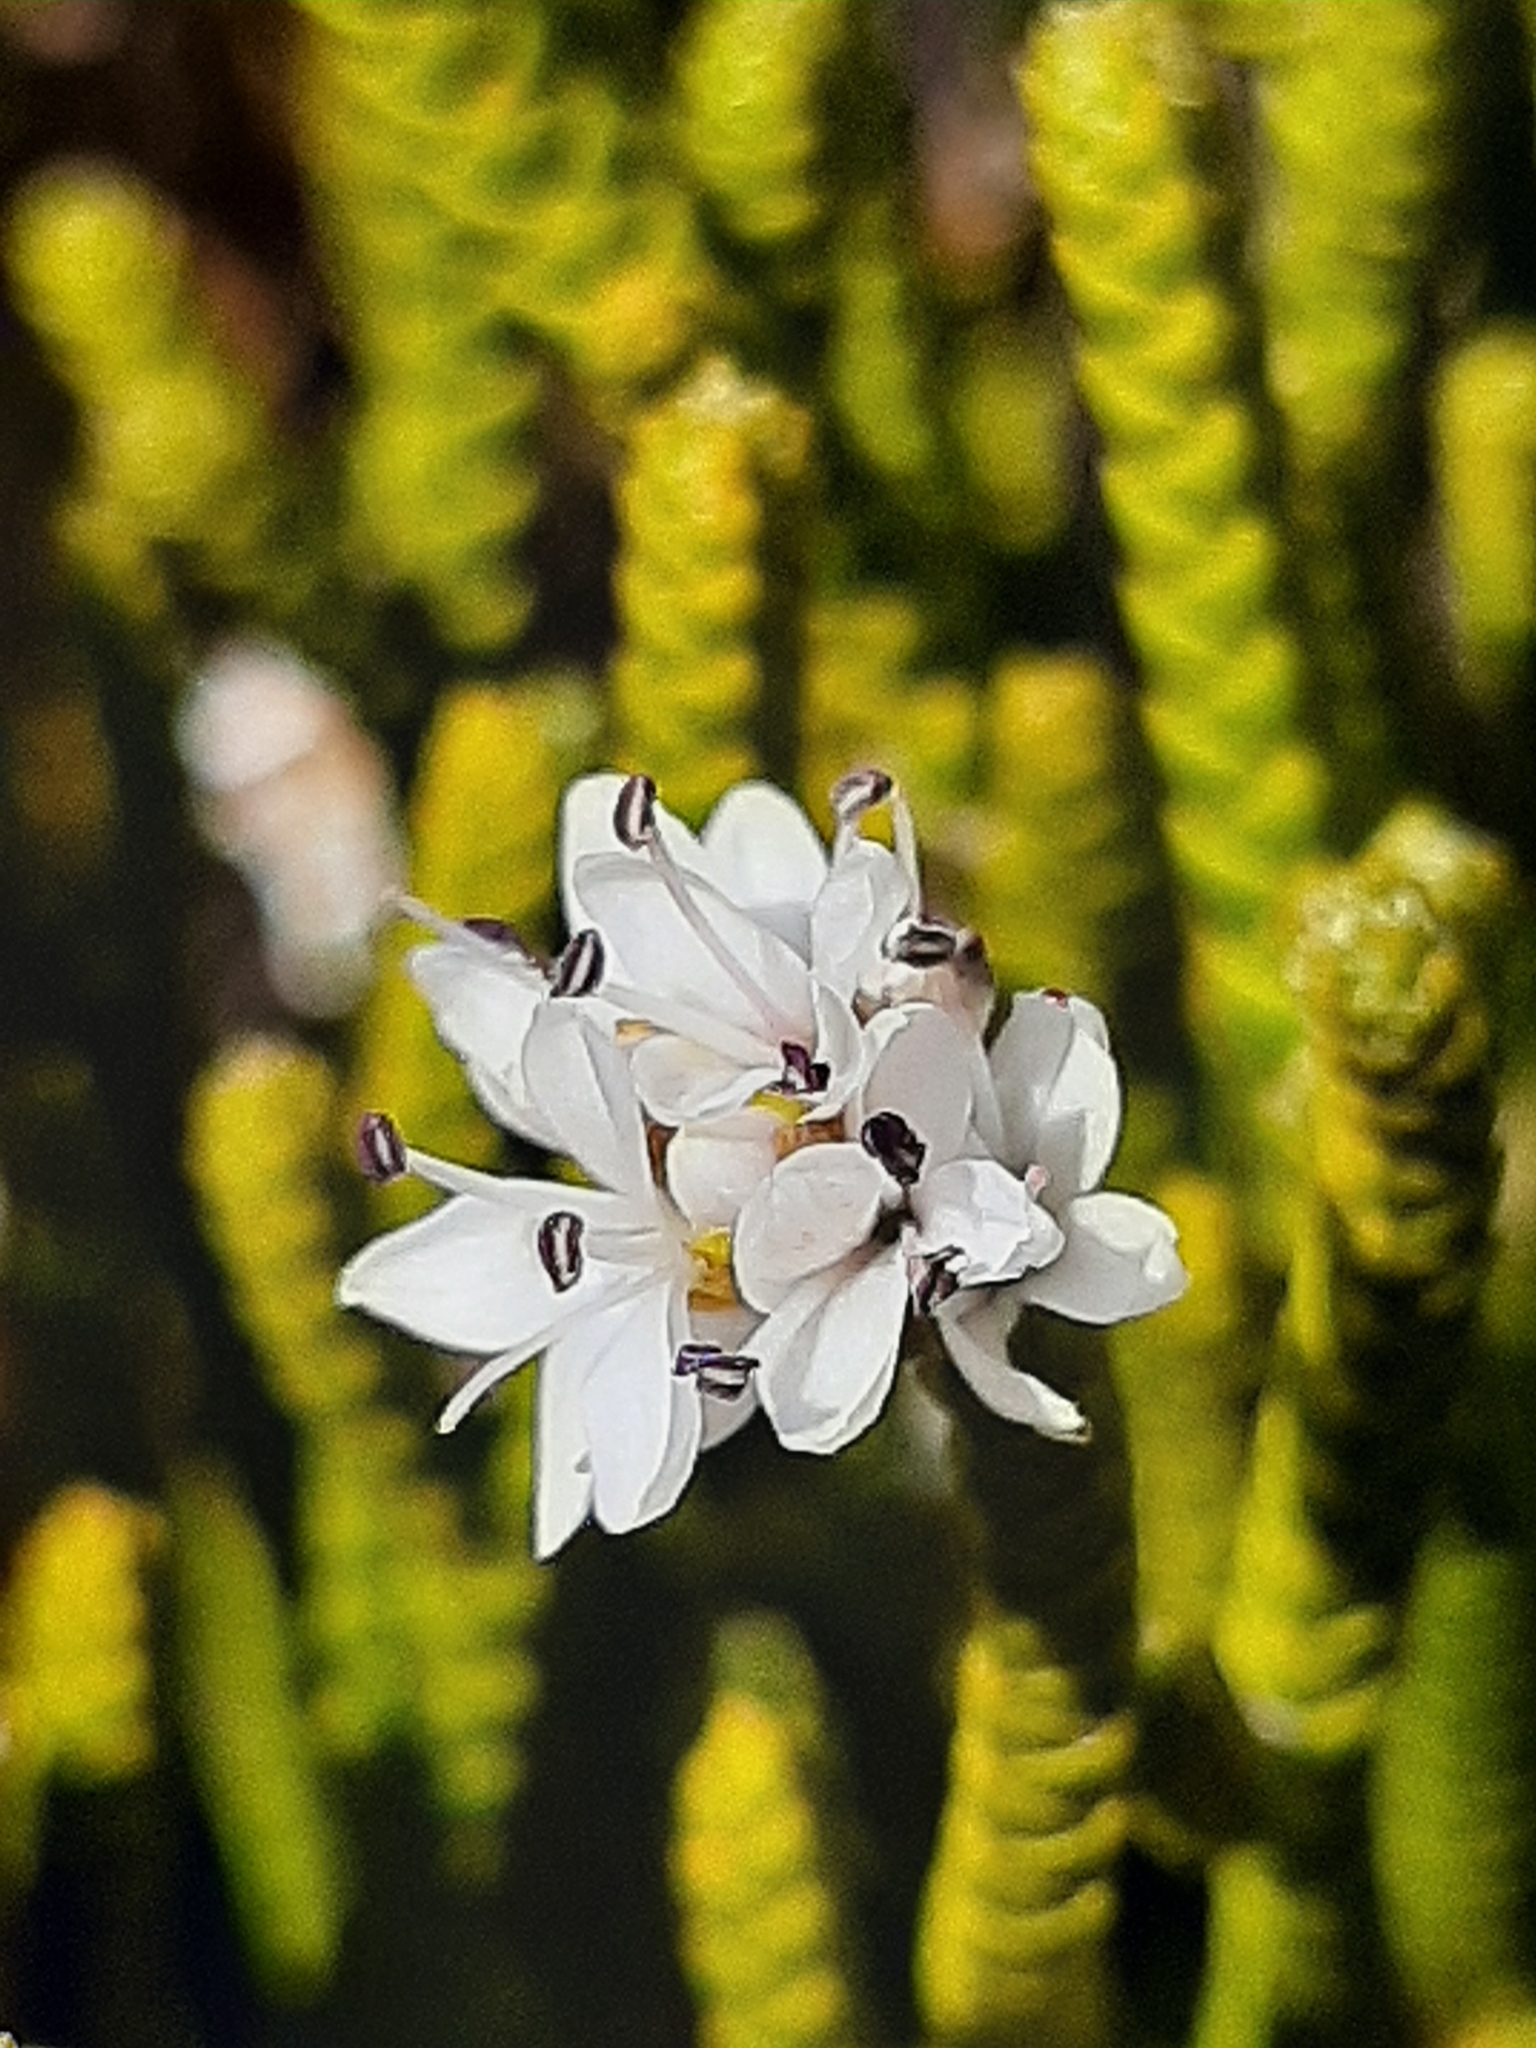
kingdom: Plantae
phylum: Tracheophyta
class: Magnoliopsida
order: Lamiales
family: Plantaginaceae
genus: Veronica
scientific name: Veronica lycopodioides
